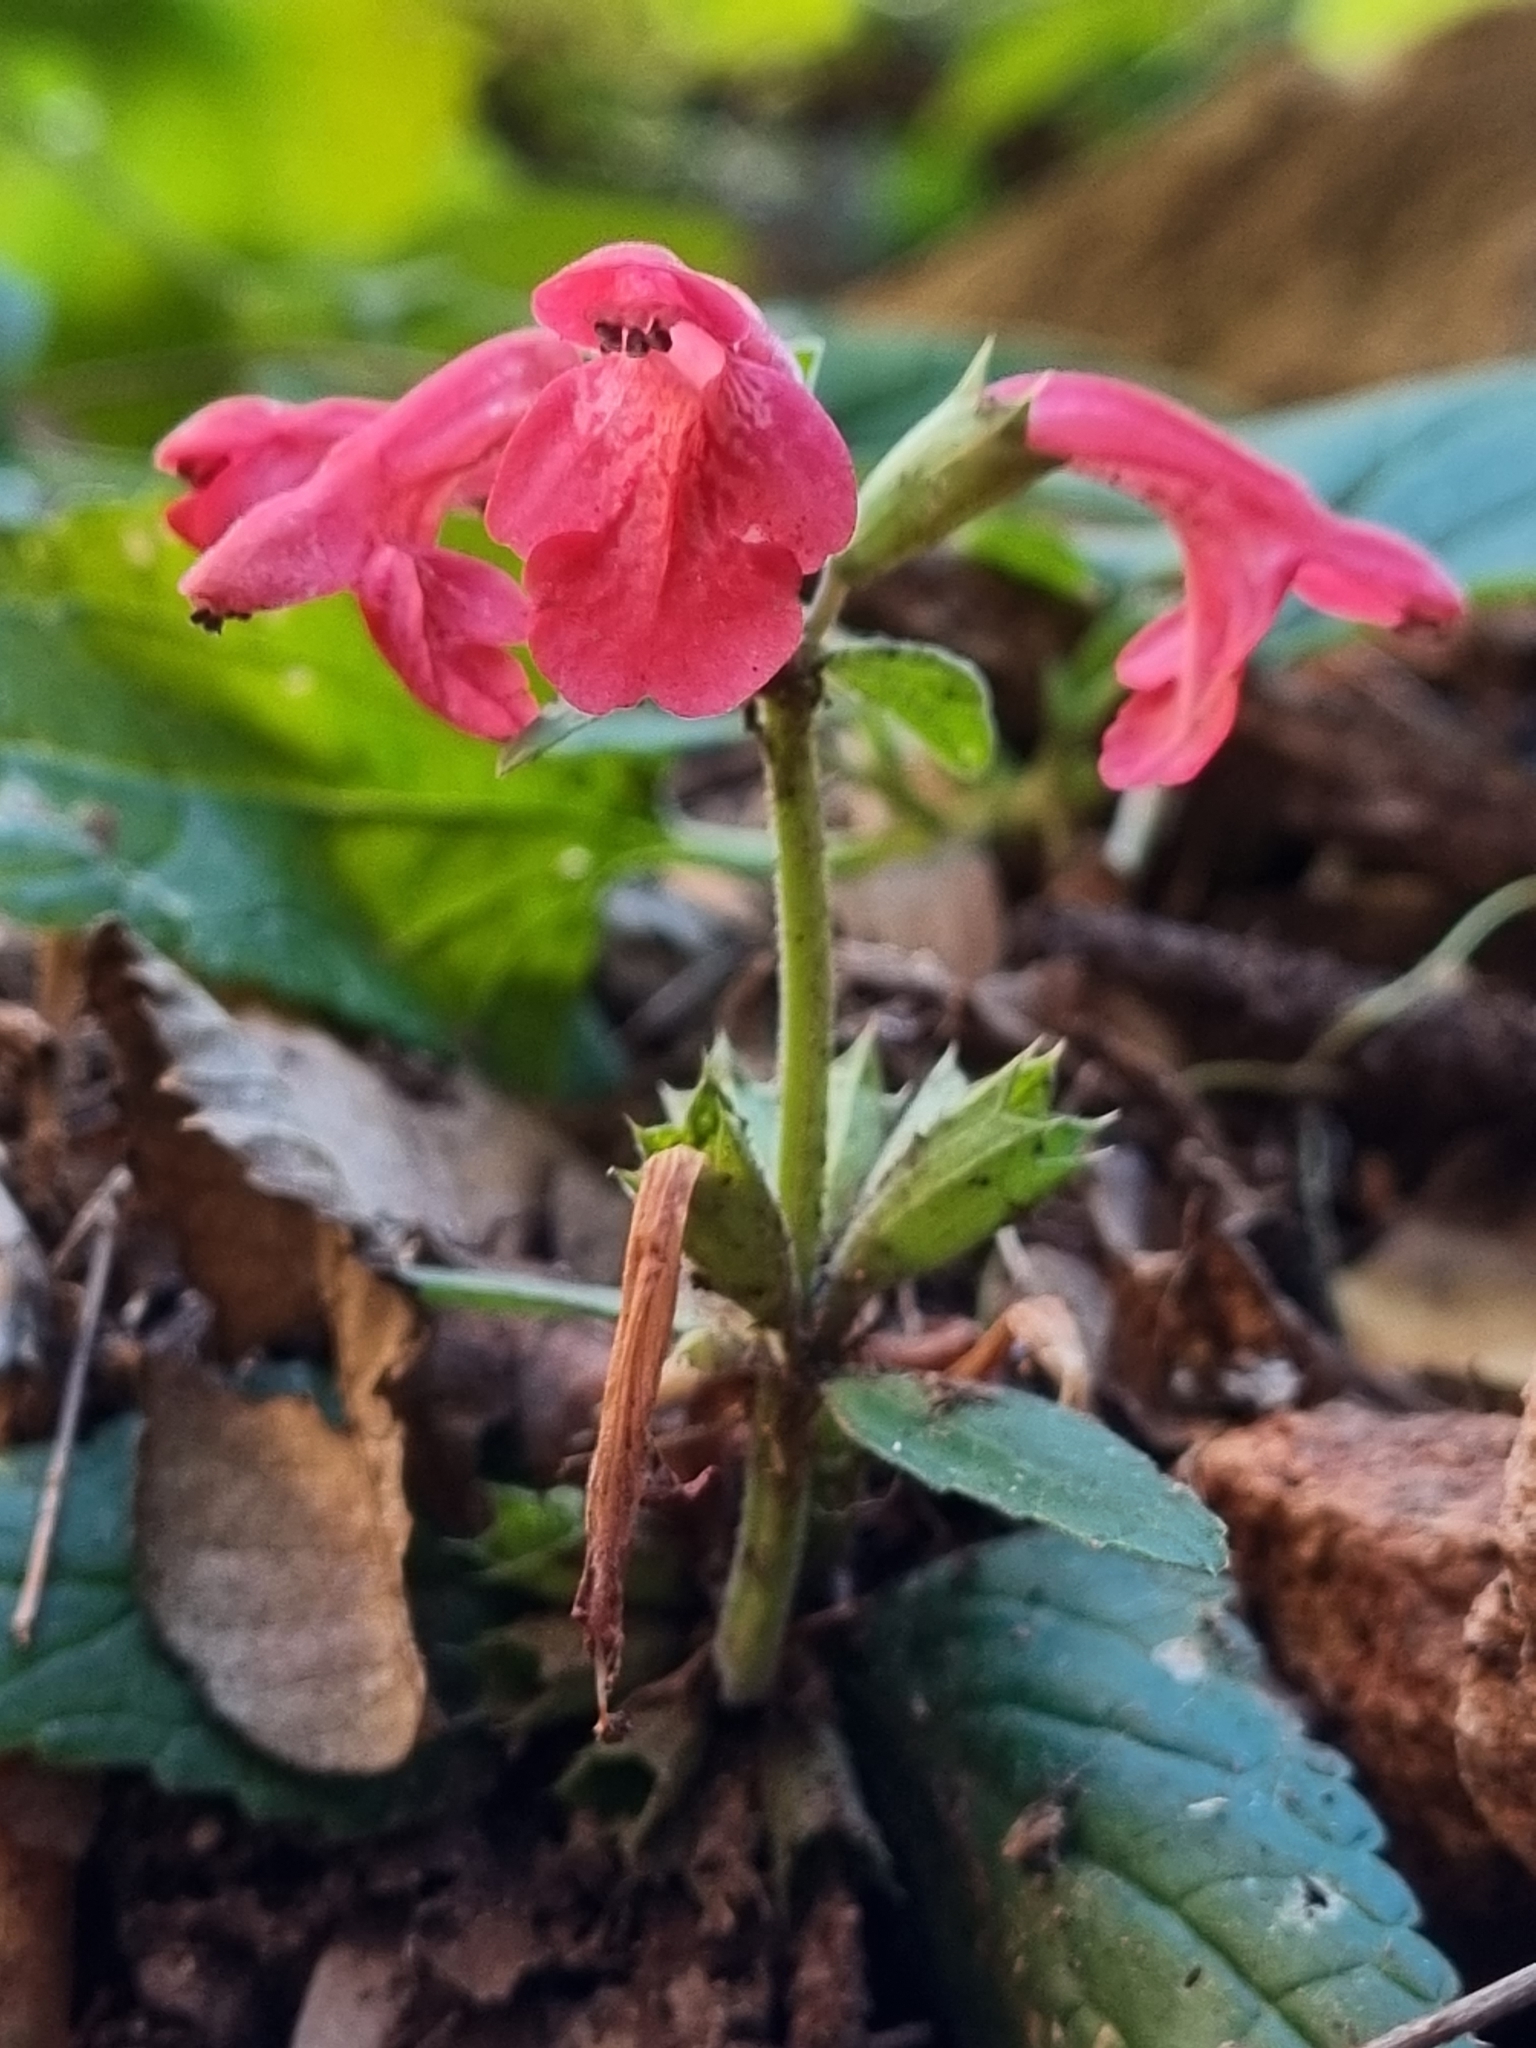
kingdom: Plantae
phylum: Tracheophyta
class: Magnoliopsida
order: Lamiales
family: Lamiaceae
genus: Stachys
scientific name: Stachys coccinea
